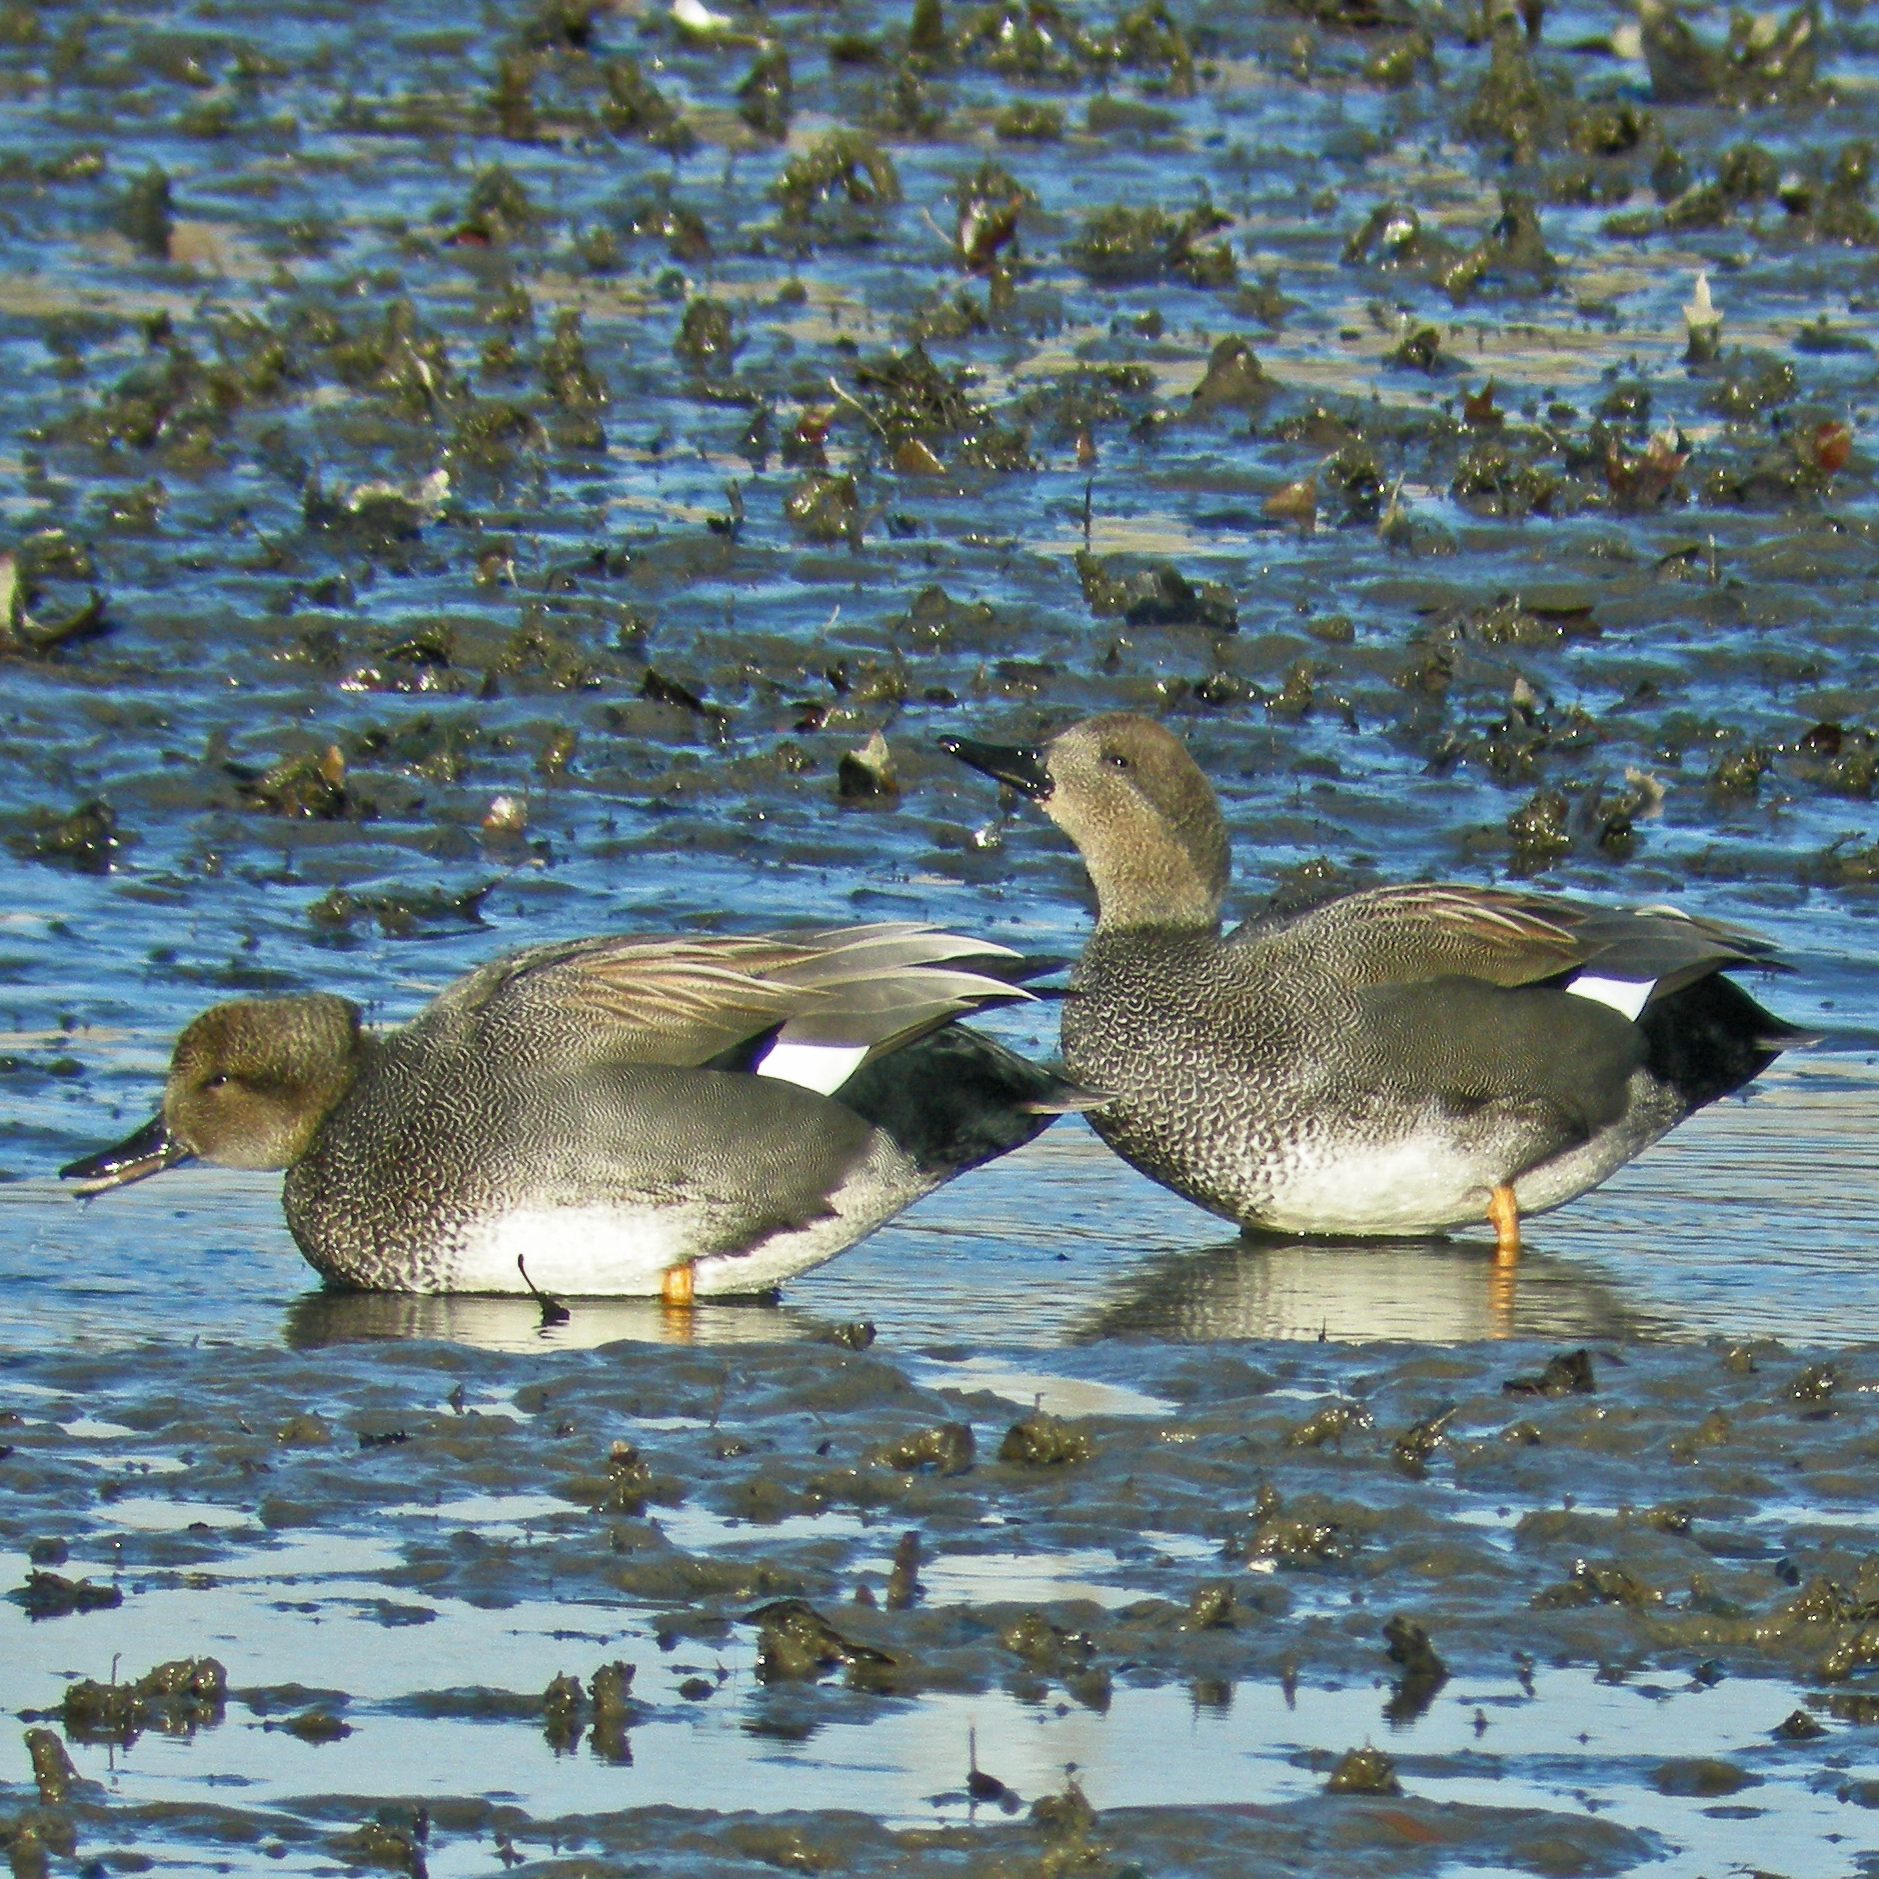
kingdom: Animalia
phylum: Chordata
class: Aves
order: Anseriformes
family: Anatidae
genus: Mareca
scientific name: Mareca strepera
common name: Gadwall
